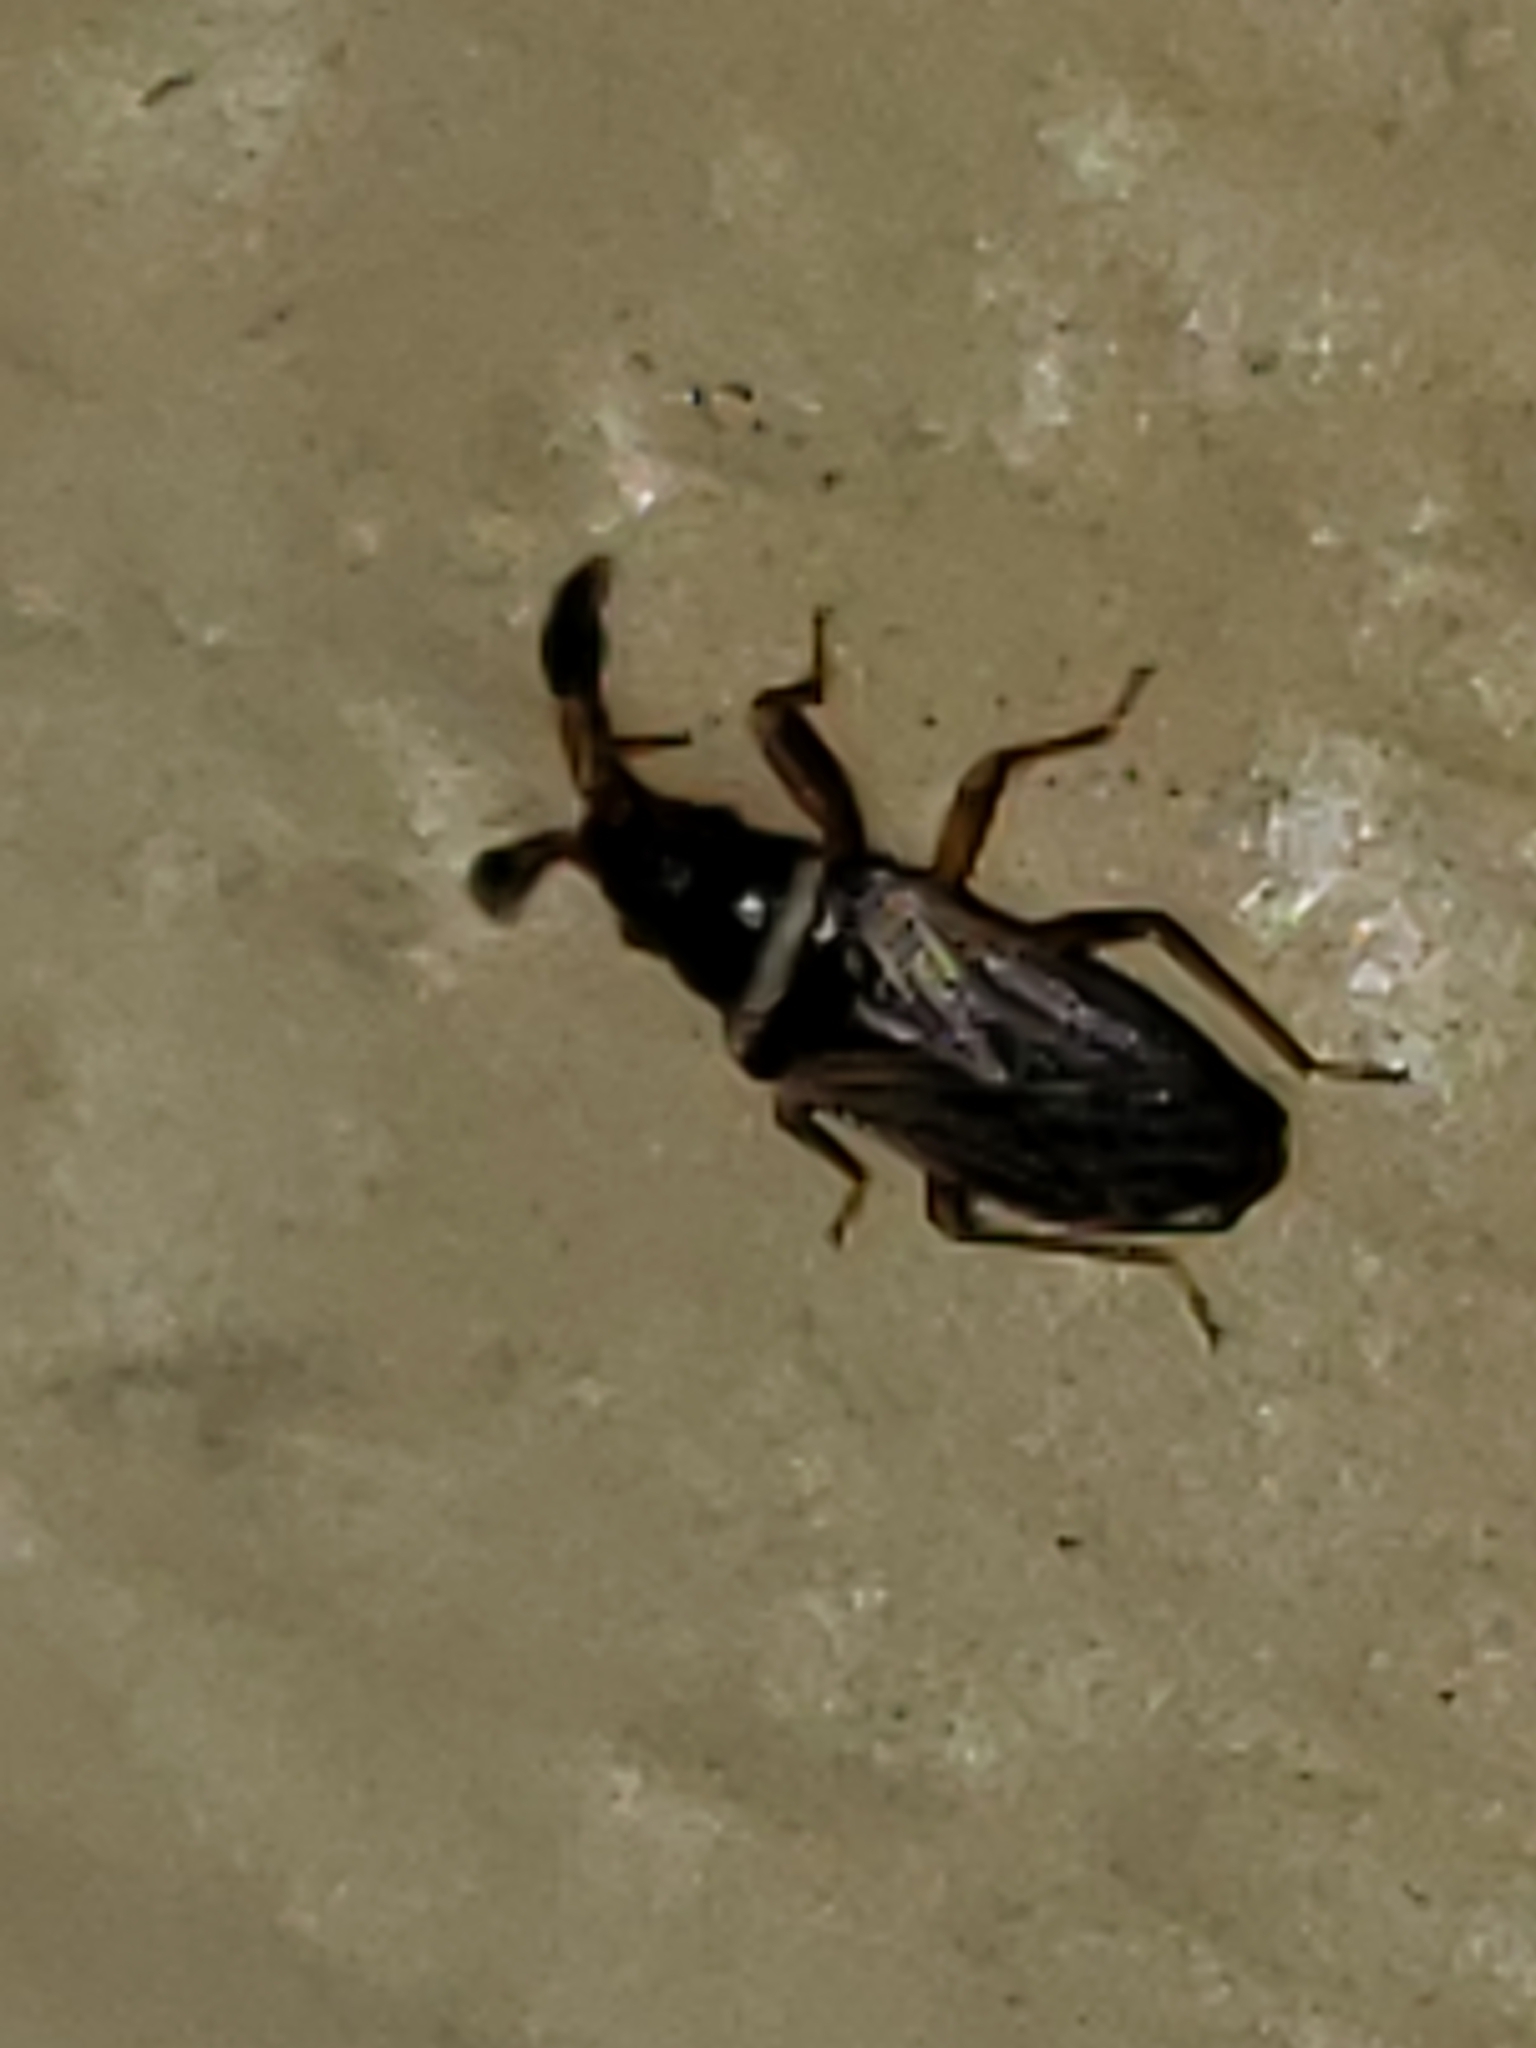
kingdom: Animalia
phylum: Arthropoda
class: Insecta
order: Hemiptera
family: Rhyparochromidae
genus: Ptochiomera
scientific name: Ptochiomera nodosa
